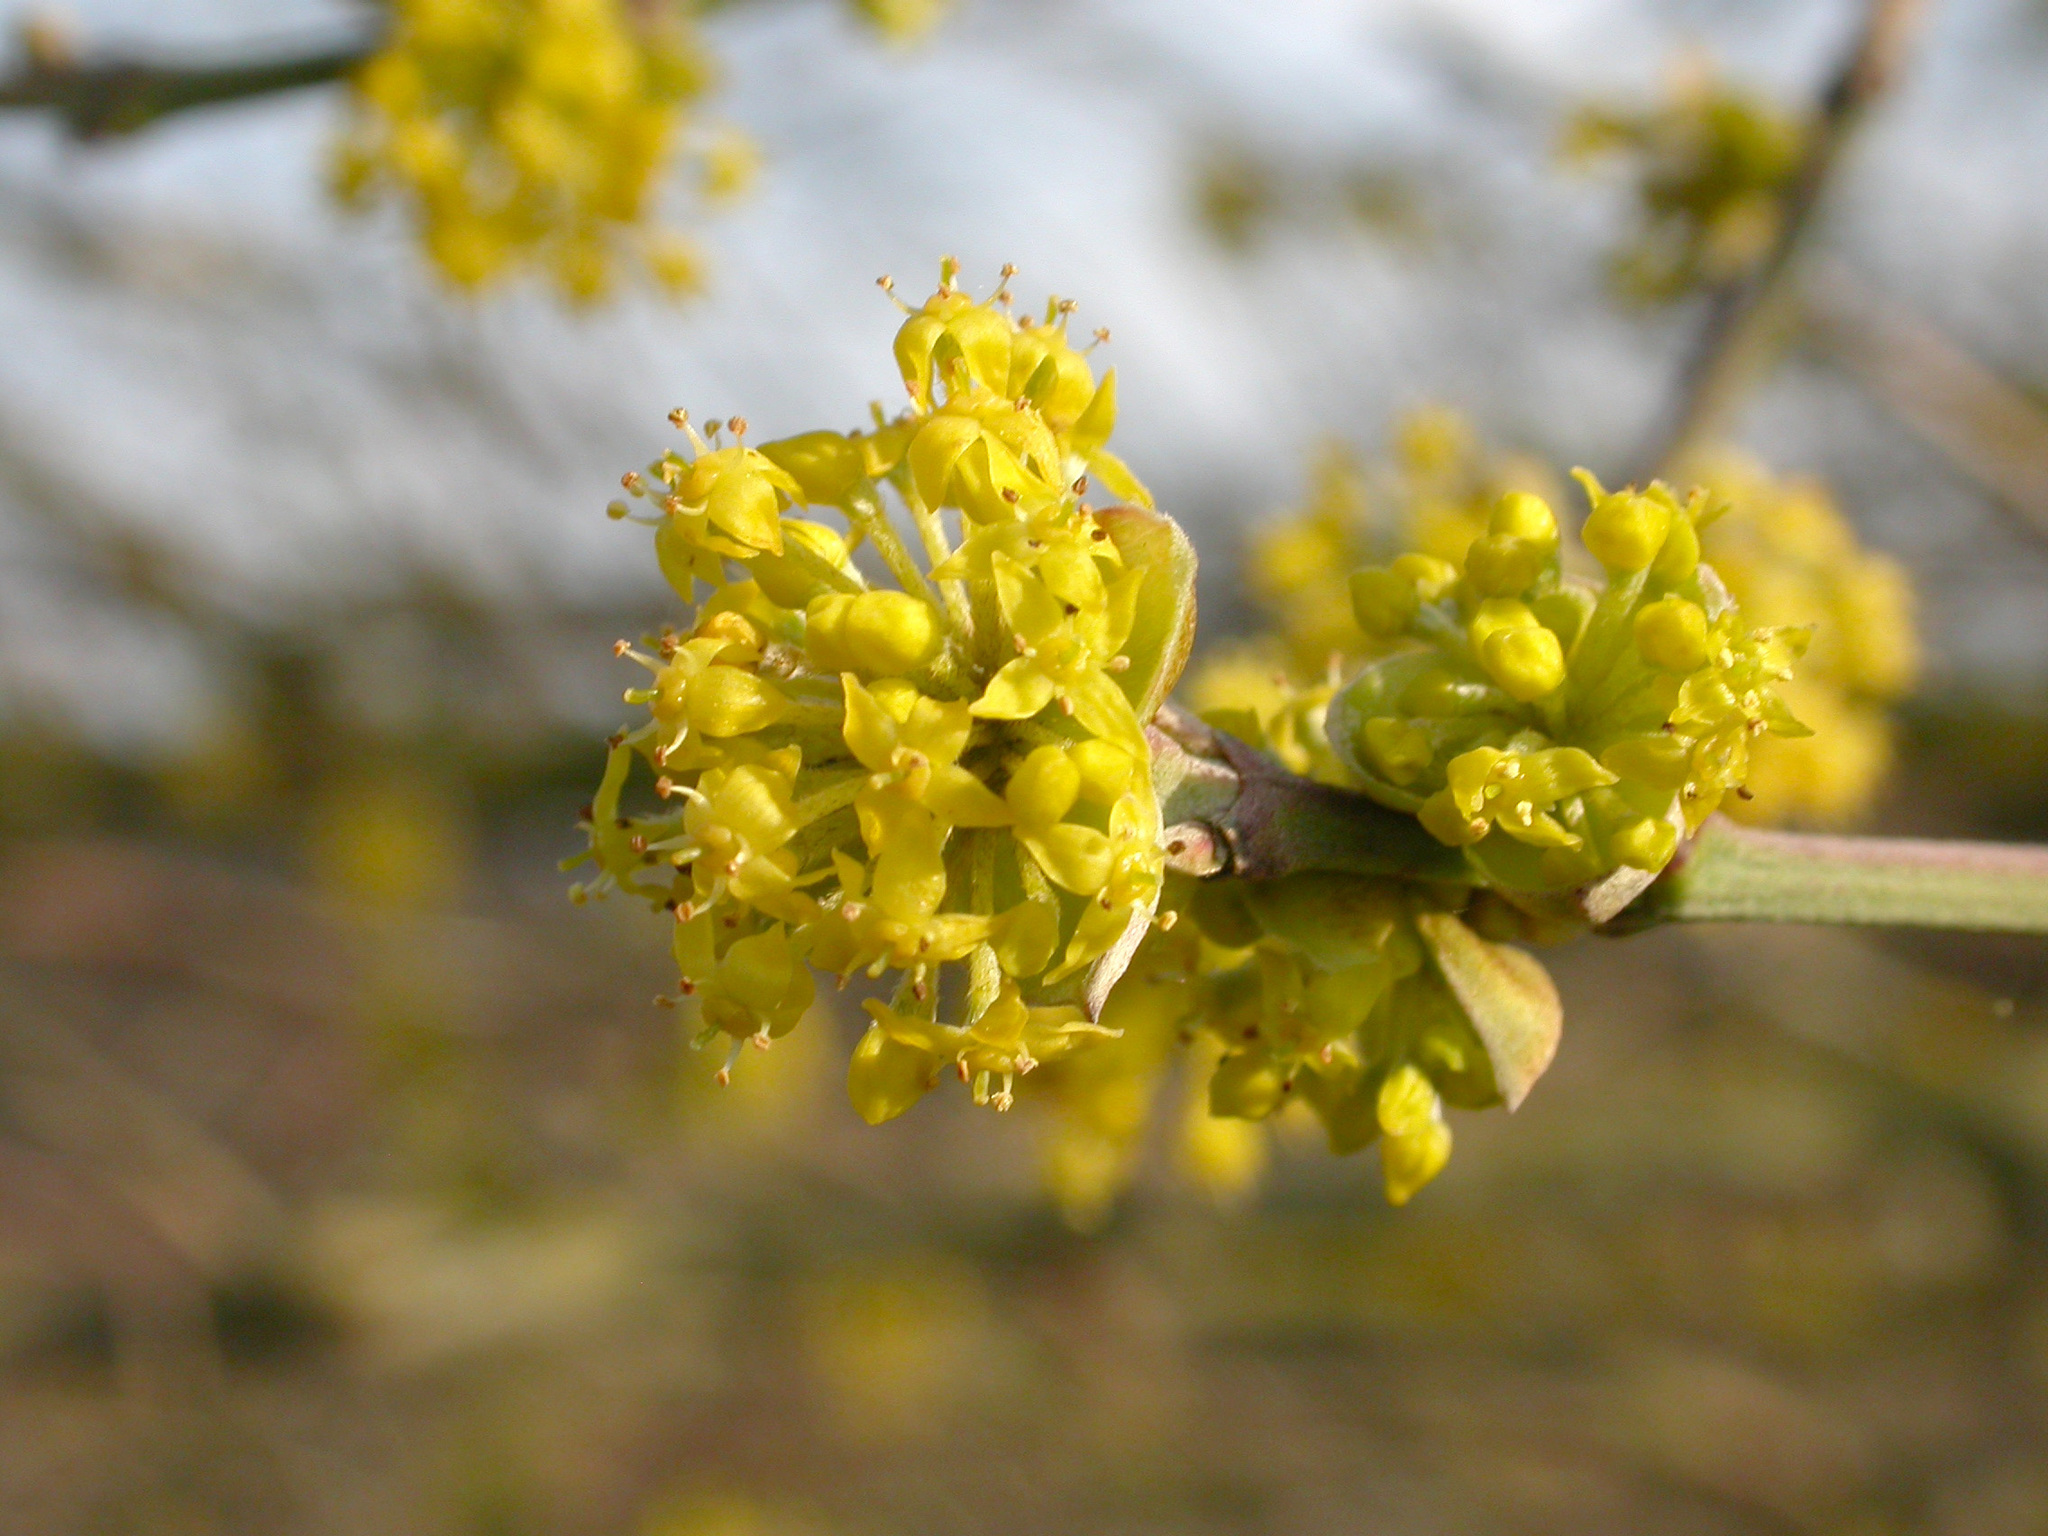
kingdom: Plantae
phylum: Tracheophyta
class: Magnoliopsida
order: Cornales
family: Cornaceae
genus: Cornus
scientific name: Cornus mas
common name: Cornelian-cherry
